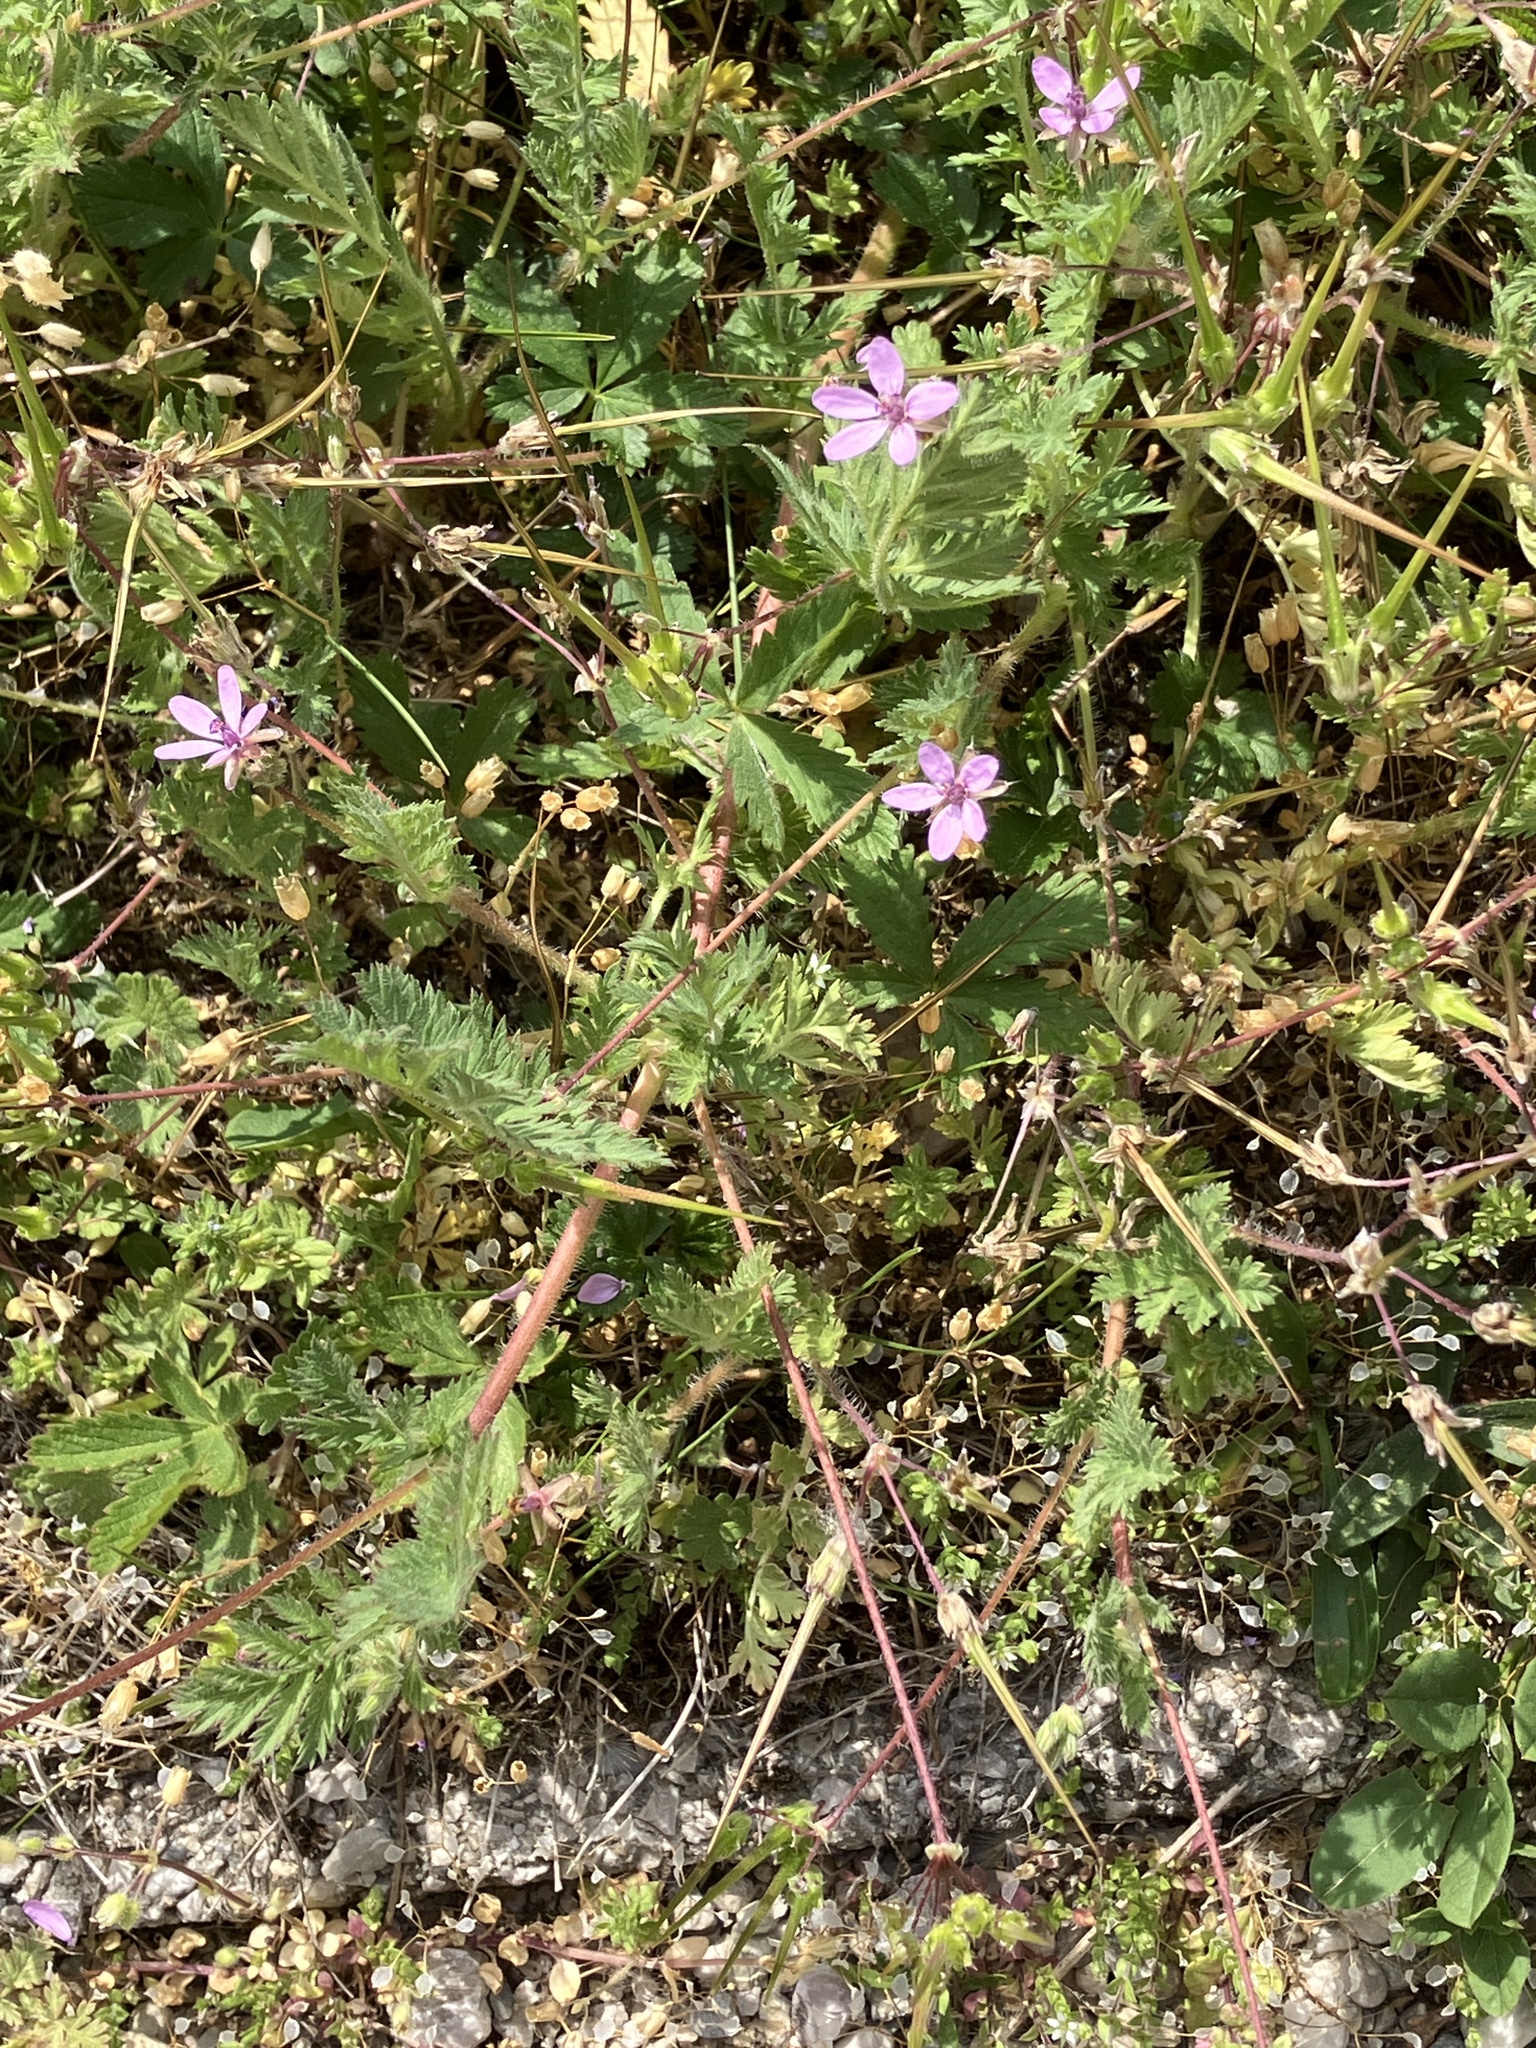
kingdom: Plantae
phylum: Tracheophyta
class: Magnoliopsida
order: Geraniales
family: Geraniaceae
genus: Erodium
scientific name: Erodium cicutarium
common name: Common stork's-bill
